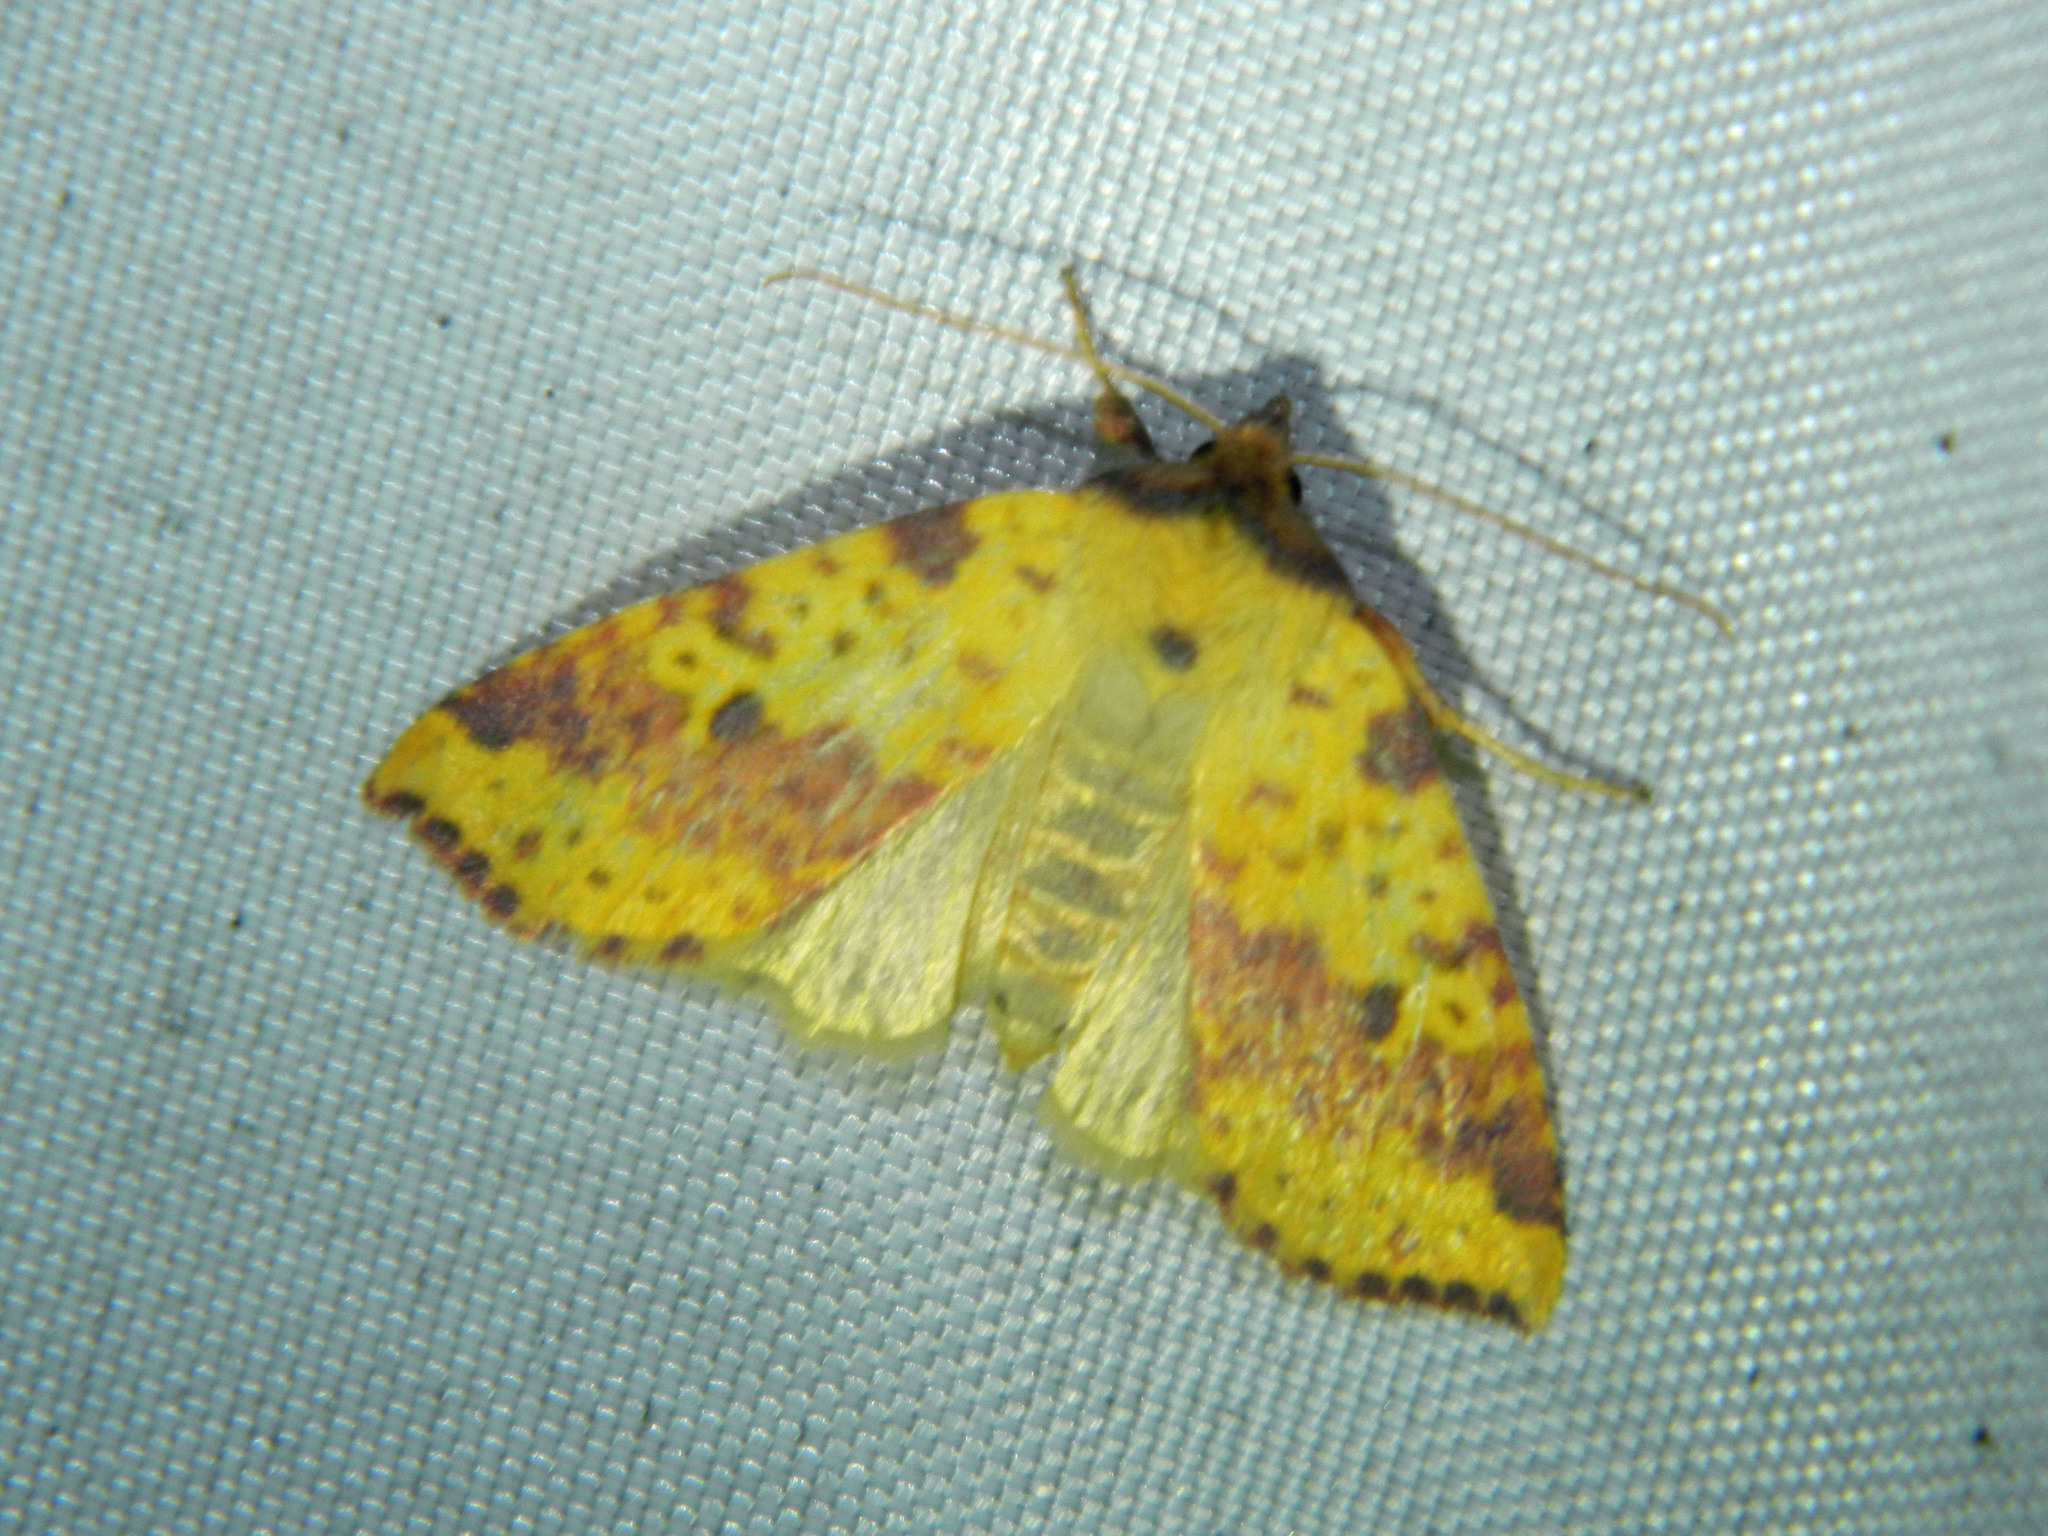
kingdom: Animalia
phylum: Arthropoda
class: Insecta
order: Lepidoptera
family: Noctuidae
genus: Xanthia
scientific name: Xanthia tatago
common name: Pink-banded sallow
